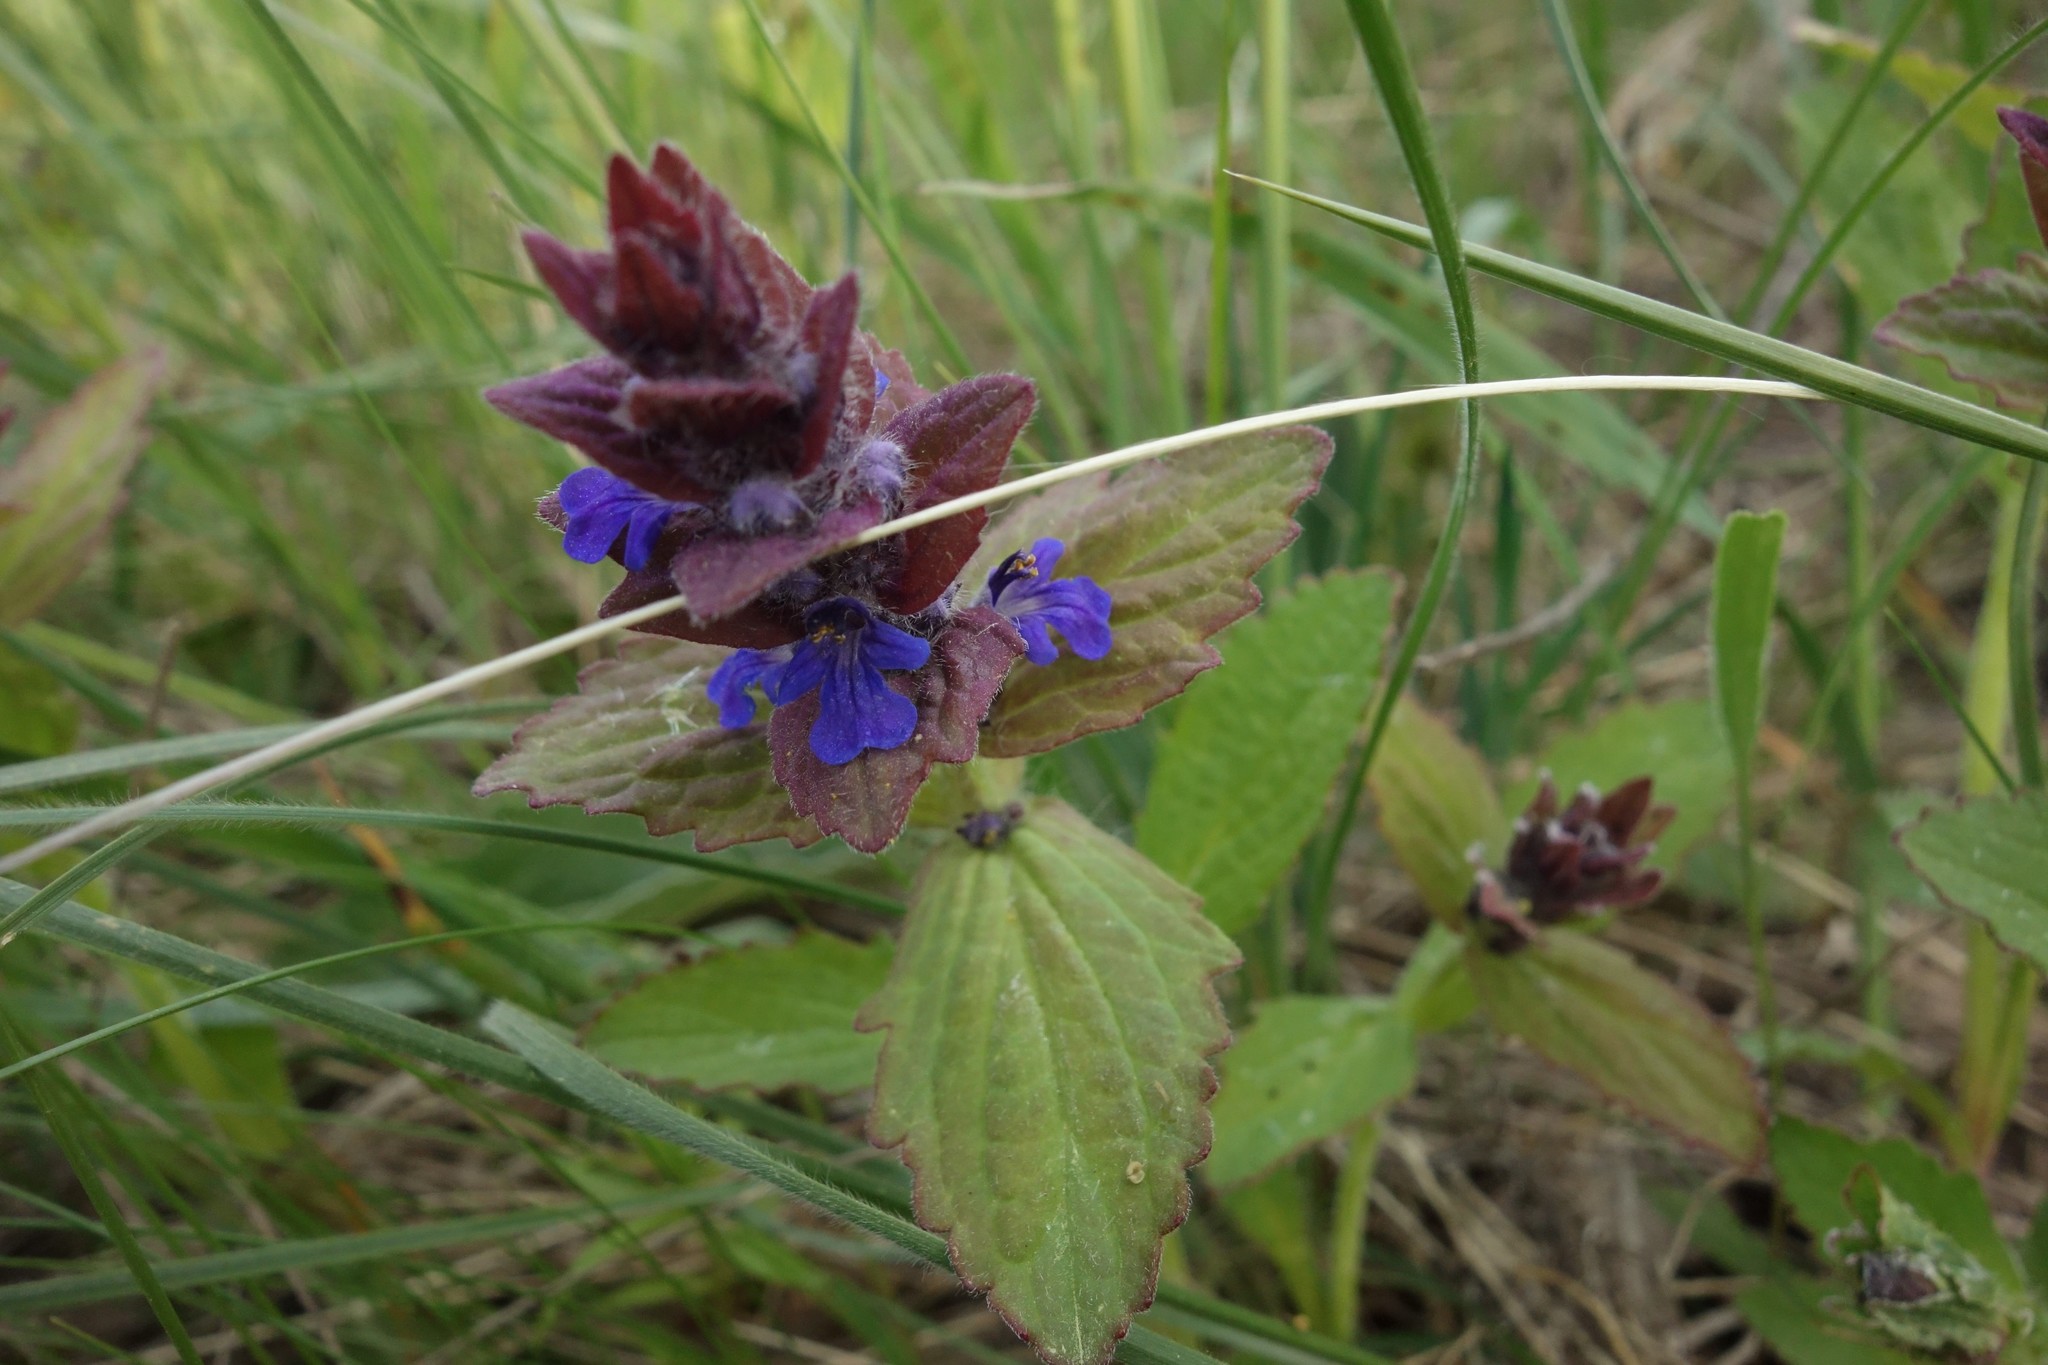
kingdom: Plantae
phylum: Tracheophyta
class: Magnoliopsida
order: Lamiales
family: Lamiaceae
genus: Ajuga
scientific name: Ajuga genevensis
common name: Blue bugle
